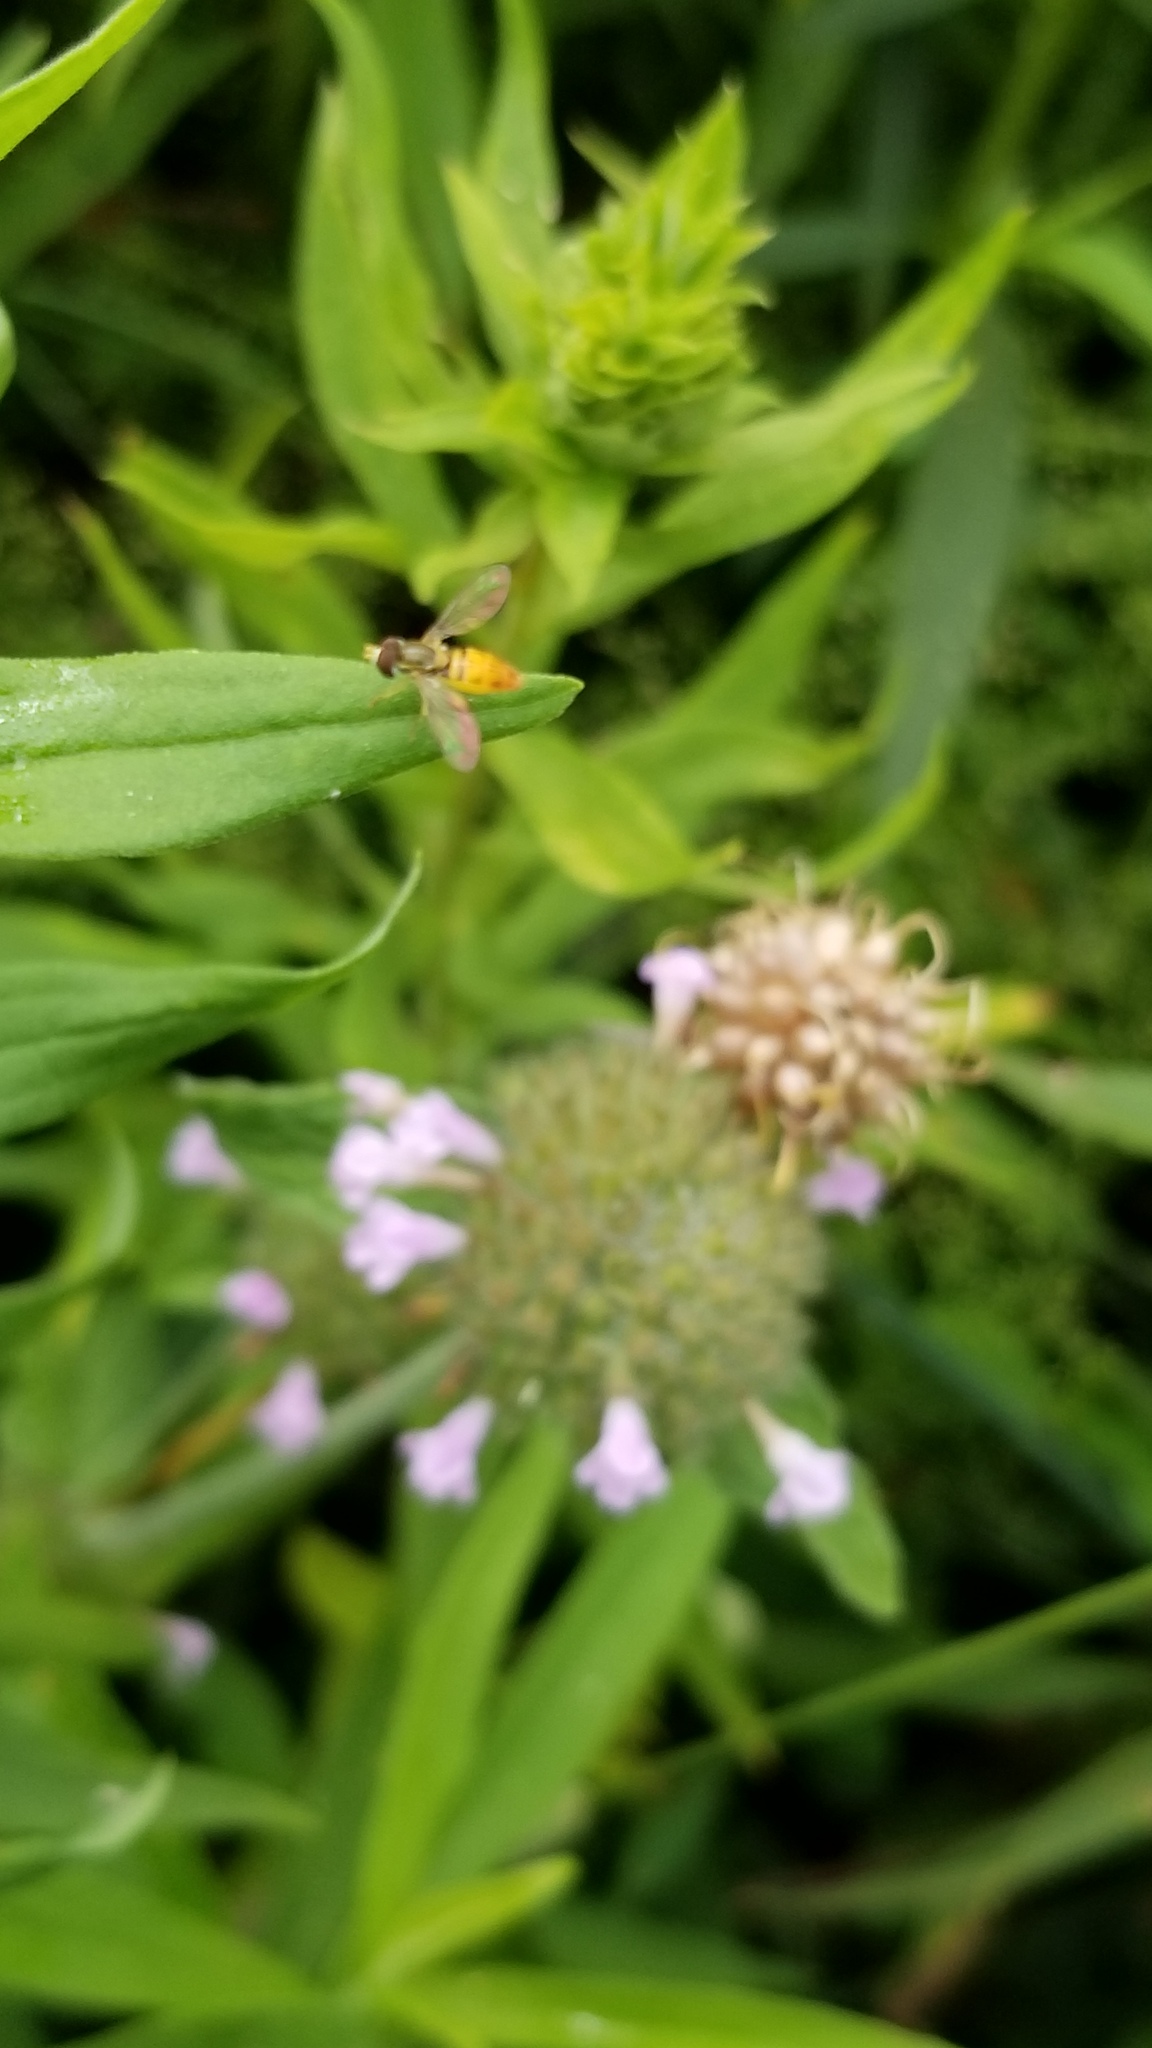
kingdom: Animalia
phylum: Arthropoda
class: Insecta
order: Diptera
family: Syrphidae
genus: Toxomerus
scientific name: Toxomerus marginatus
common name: Syrphid fly
